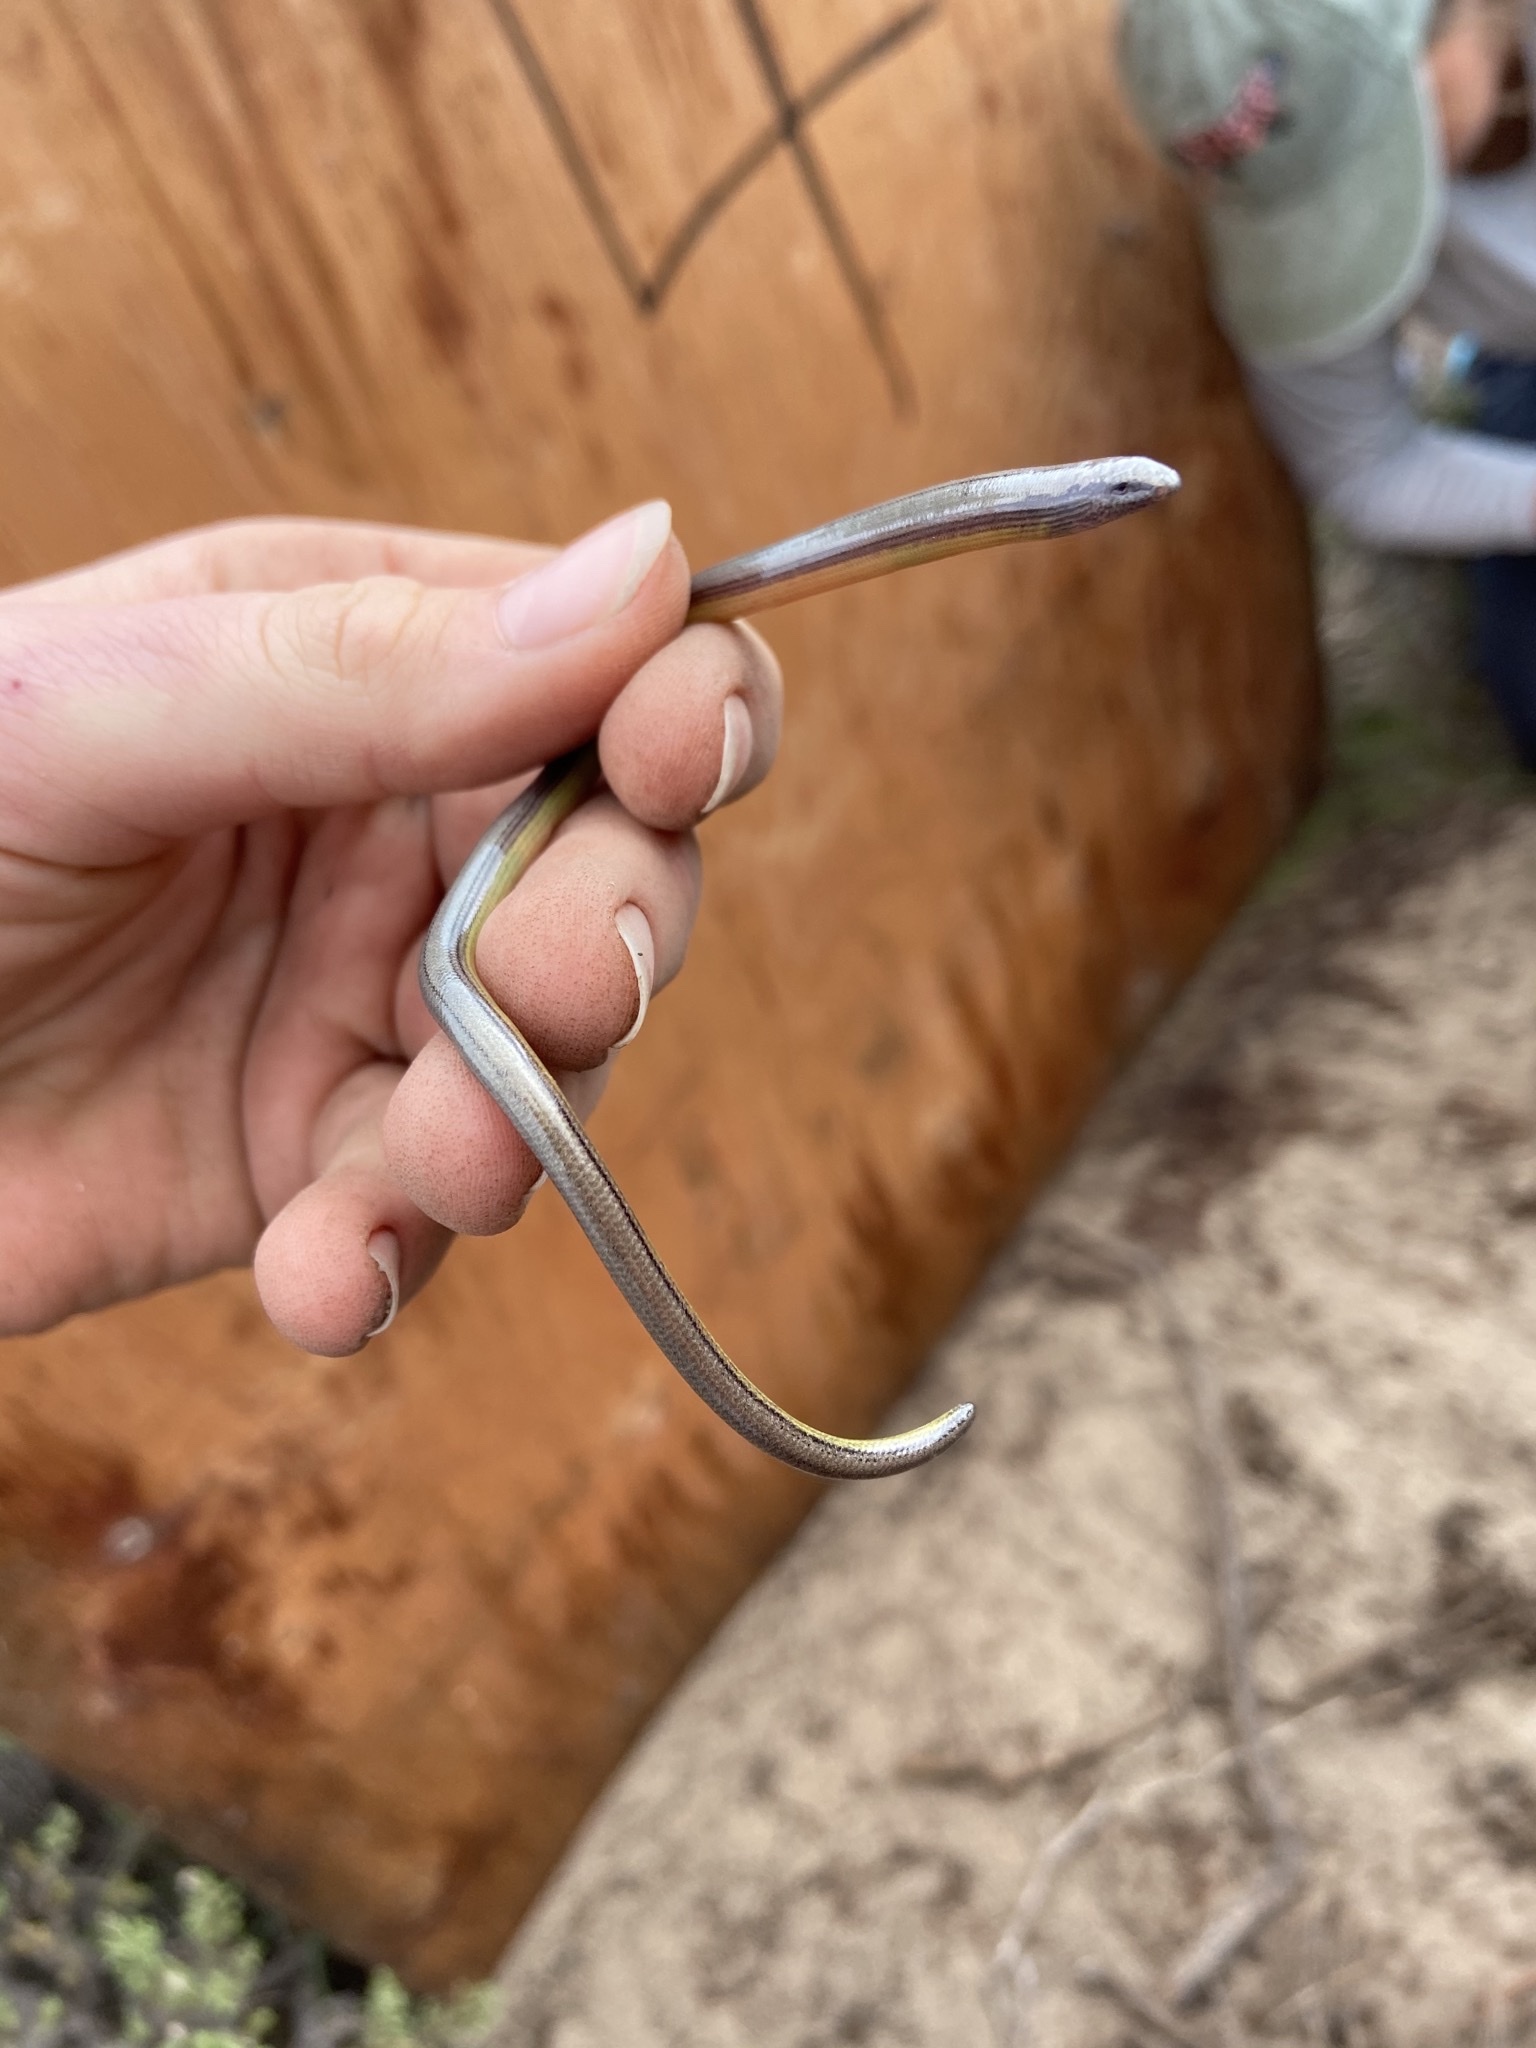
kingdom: Animalia
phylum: Chordata
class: Squamata
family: Anguidae
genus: Anniella
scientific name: Anniella pulchra
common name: California legless lizard
